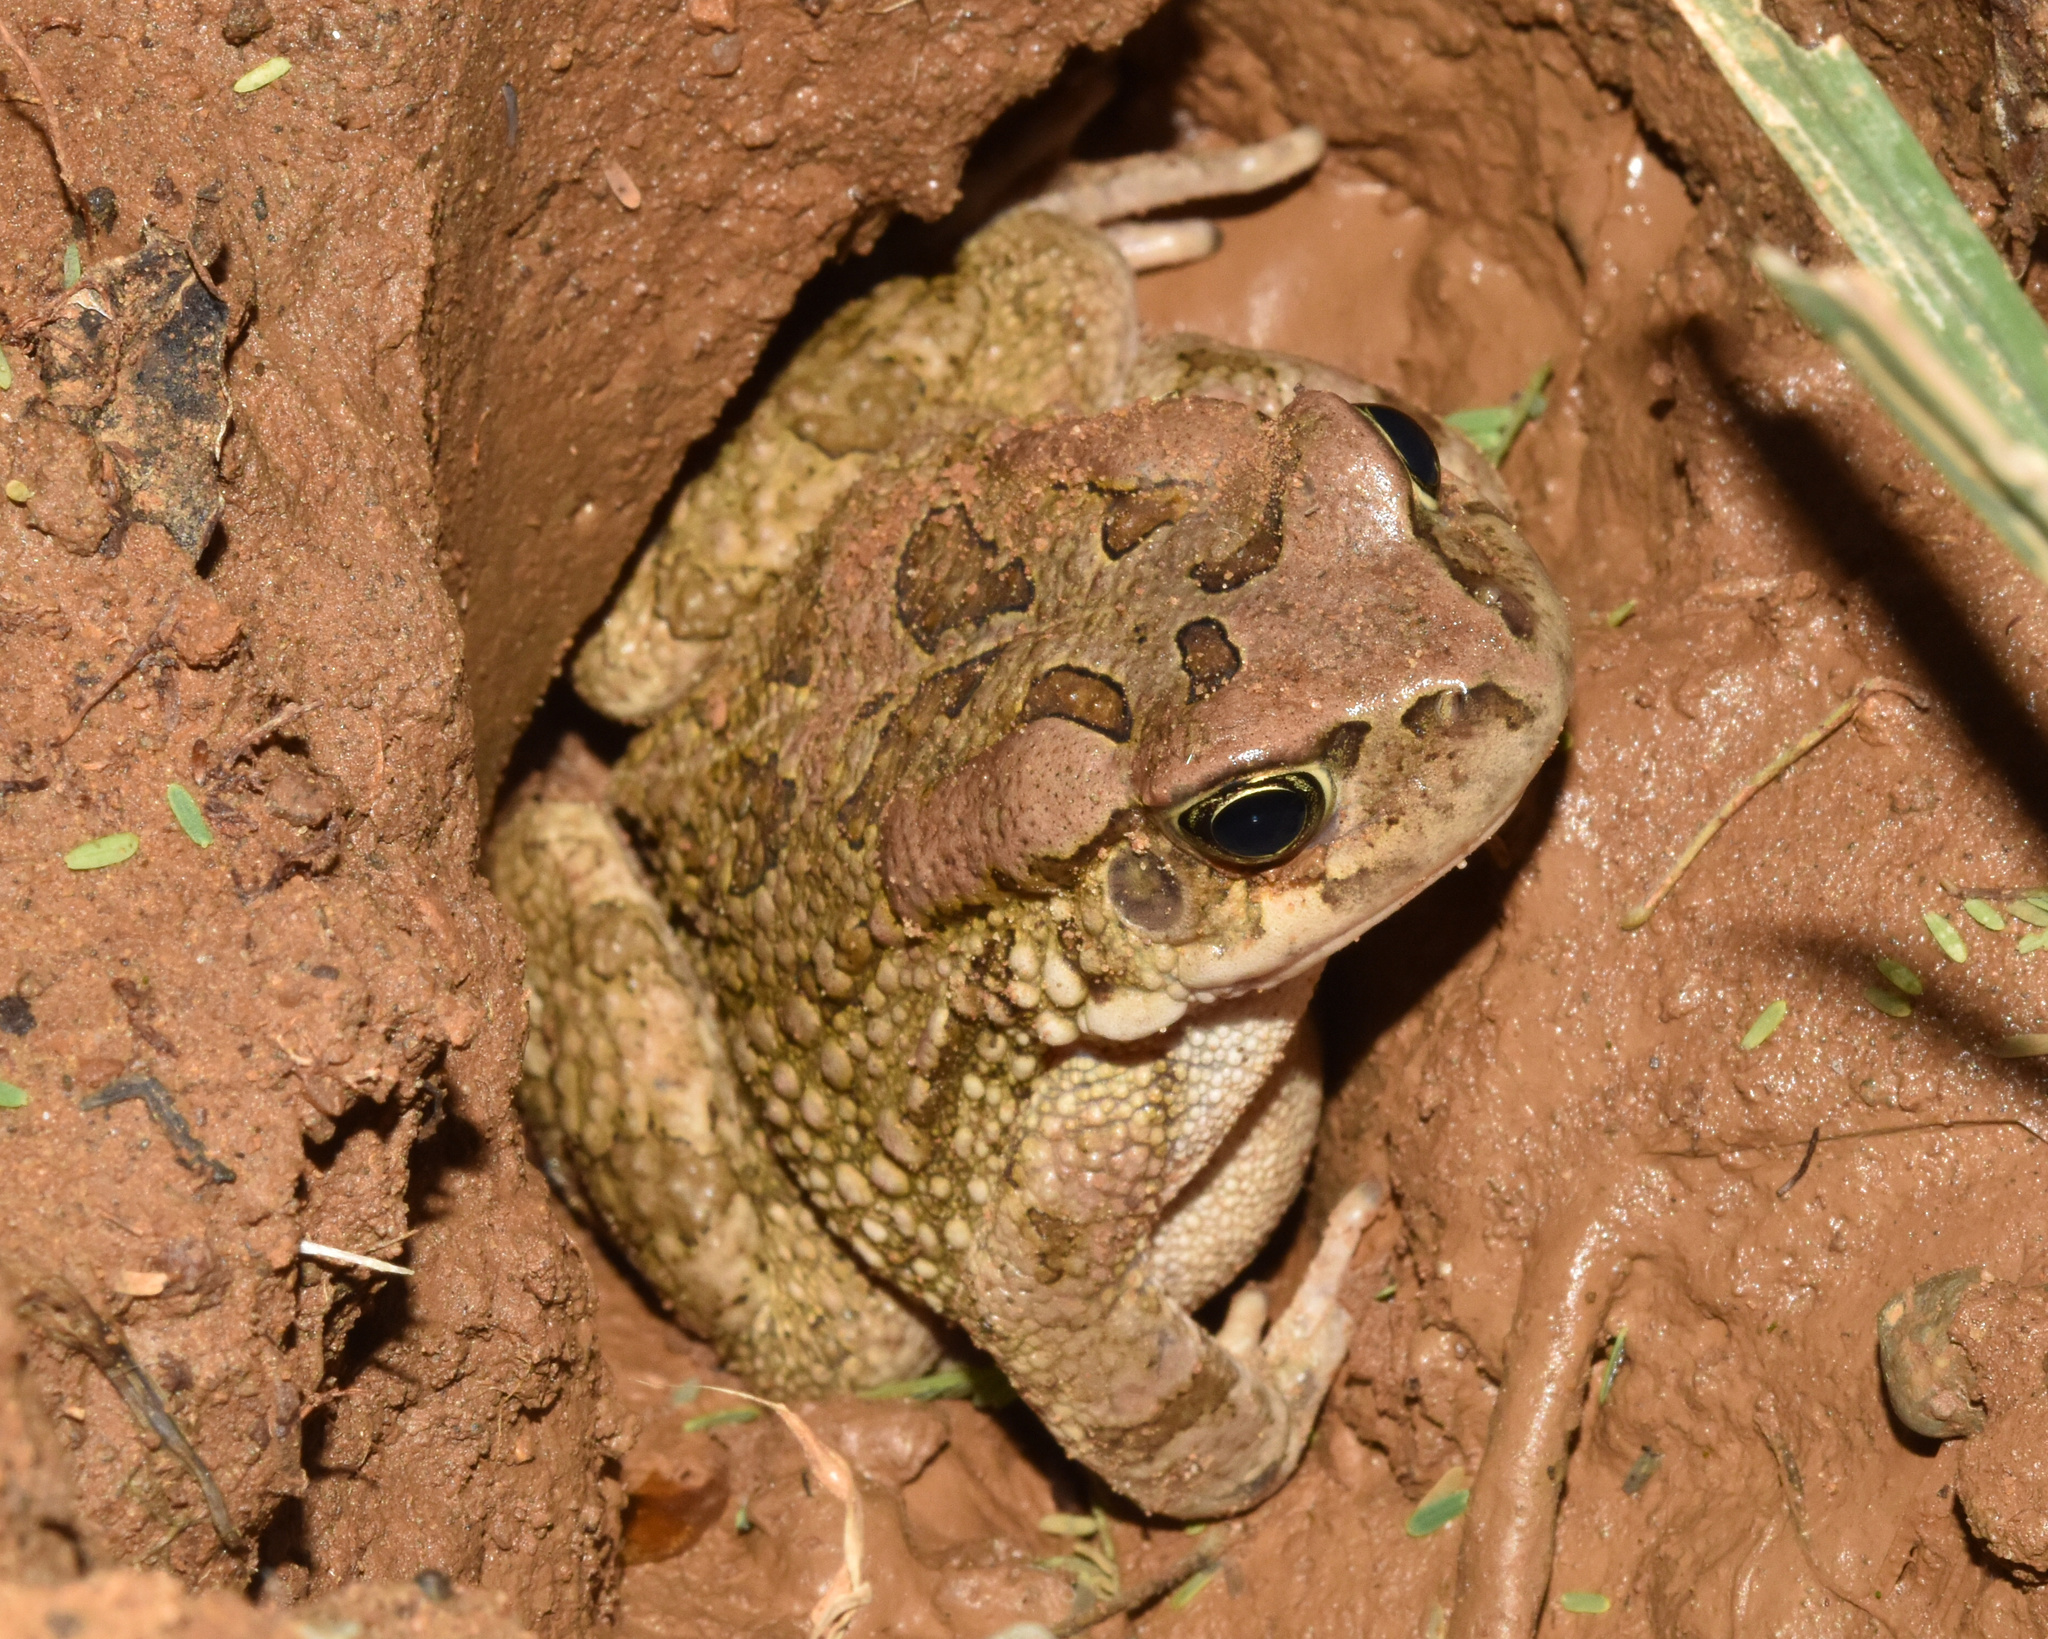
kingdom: Animalia
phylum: Chordata
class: Amphibia
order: Anura
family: Bufonidae
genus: Sclerophrys
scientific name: Sclerophrys capensis
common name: Ranger’s toad
